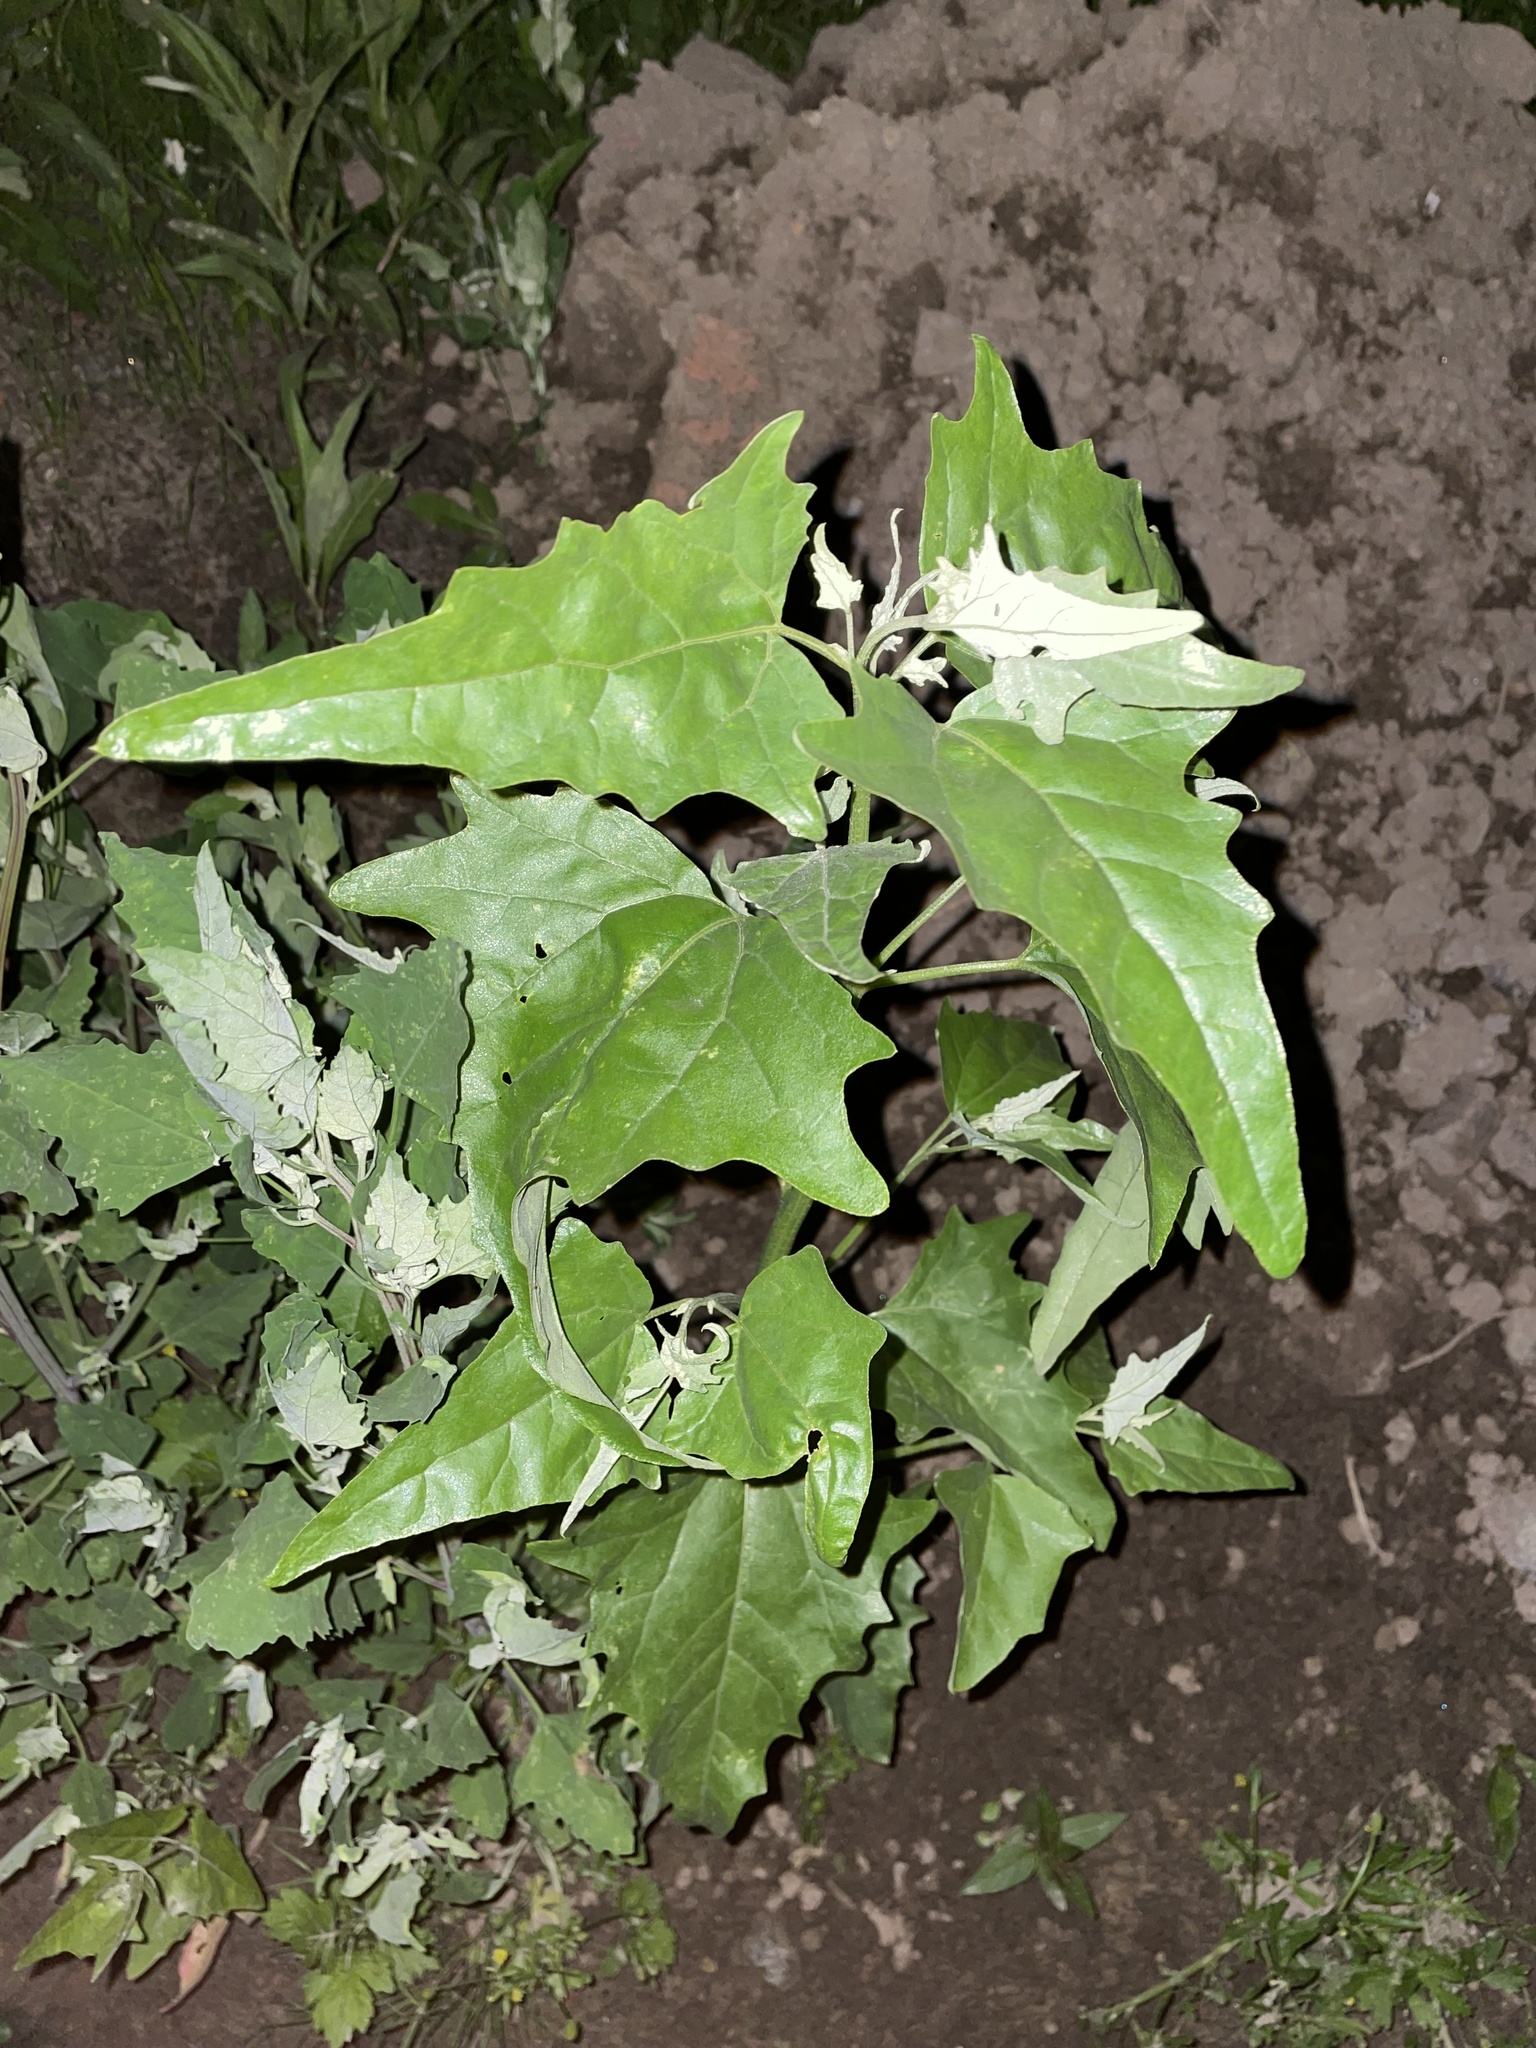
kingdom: Plantae
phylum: Tracheophyta
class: Magnoliopsida
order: Caryophyllales
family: Amaranthaceae
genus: Atriplex
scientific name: Atriplex sagittata
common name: Purple orache
